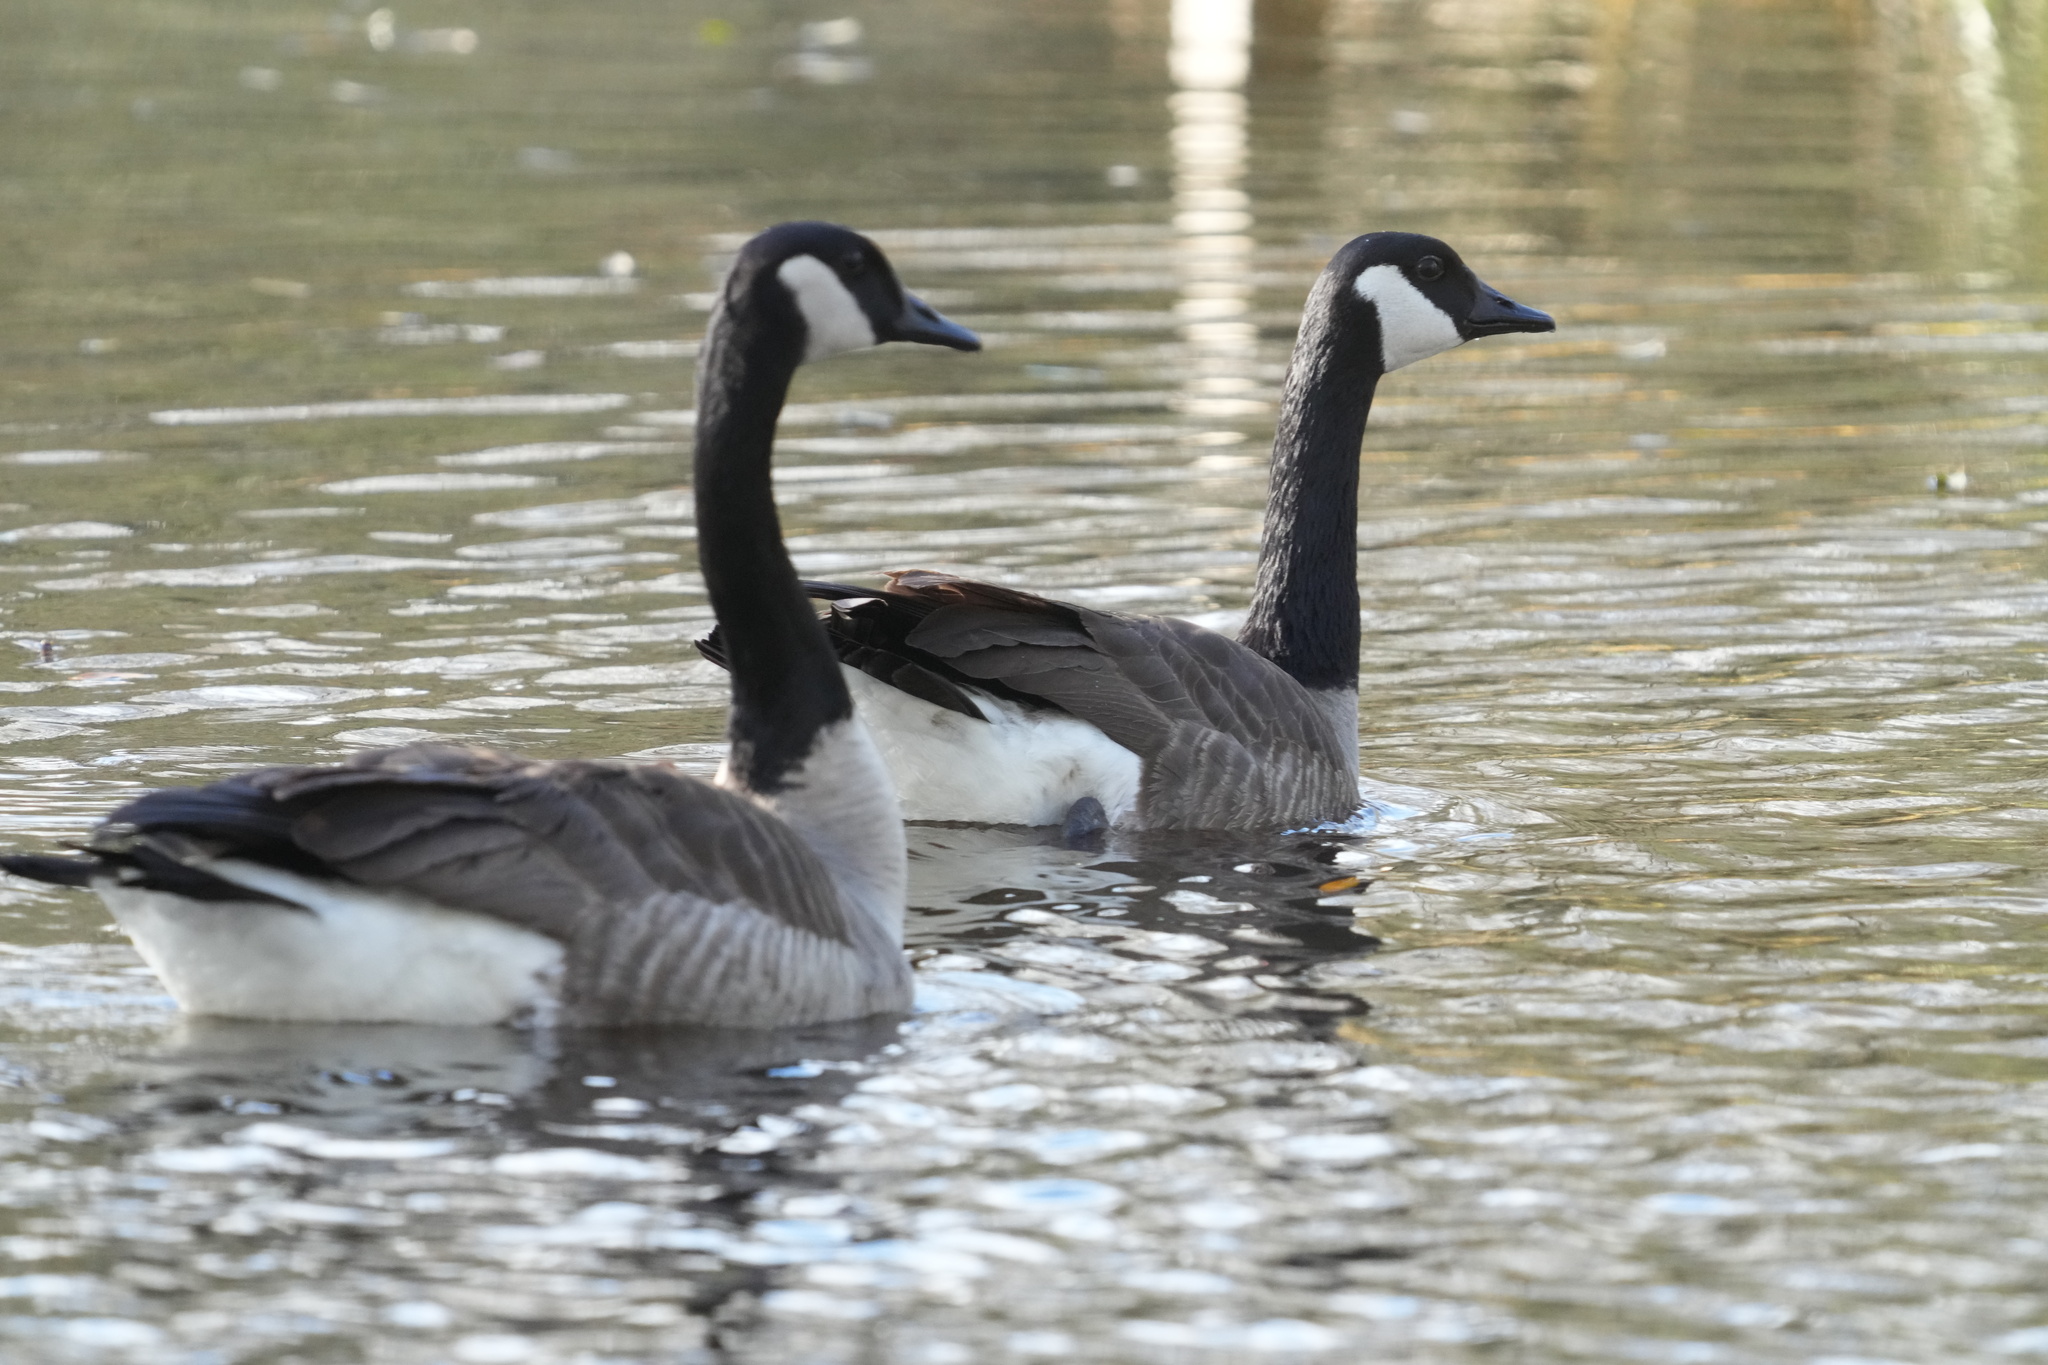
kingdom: Animalia
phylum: Chordata
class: Aves
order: Anseriformes
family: Anatidae
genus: Branta
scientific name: Branta canadensis
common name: Canada goose
